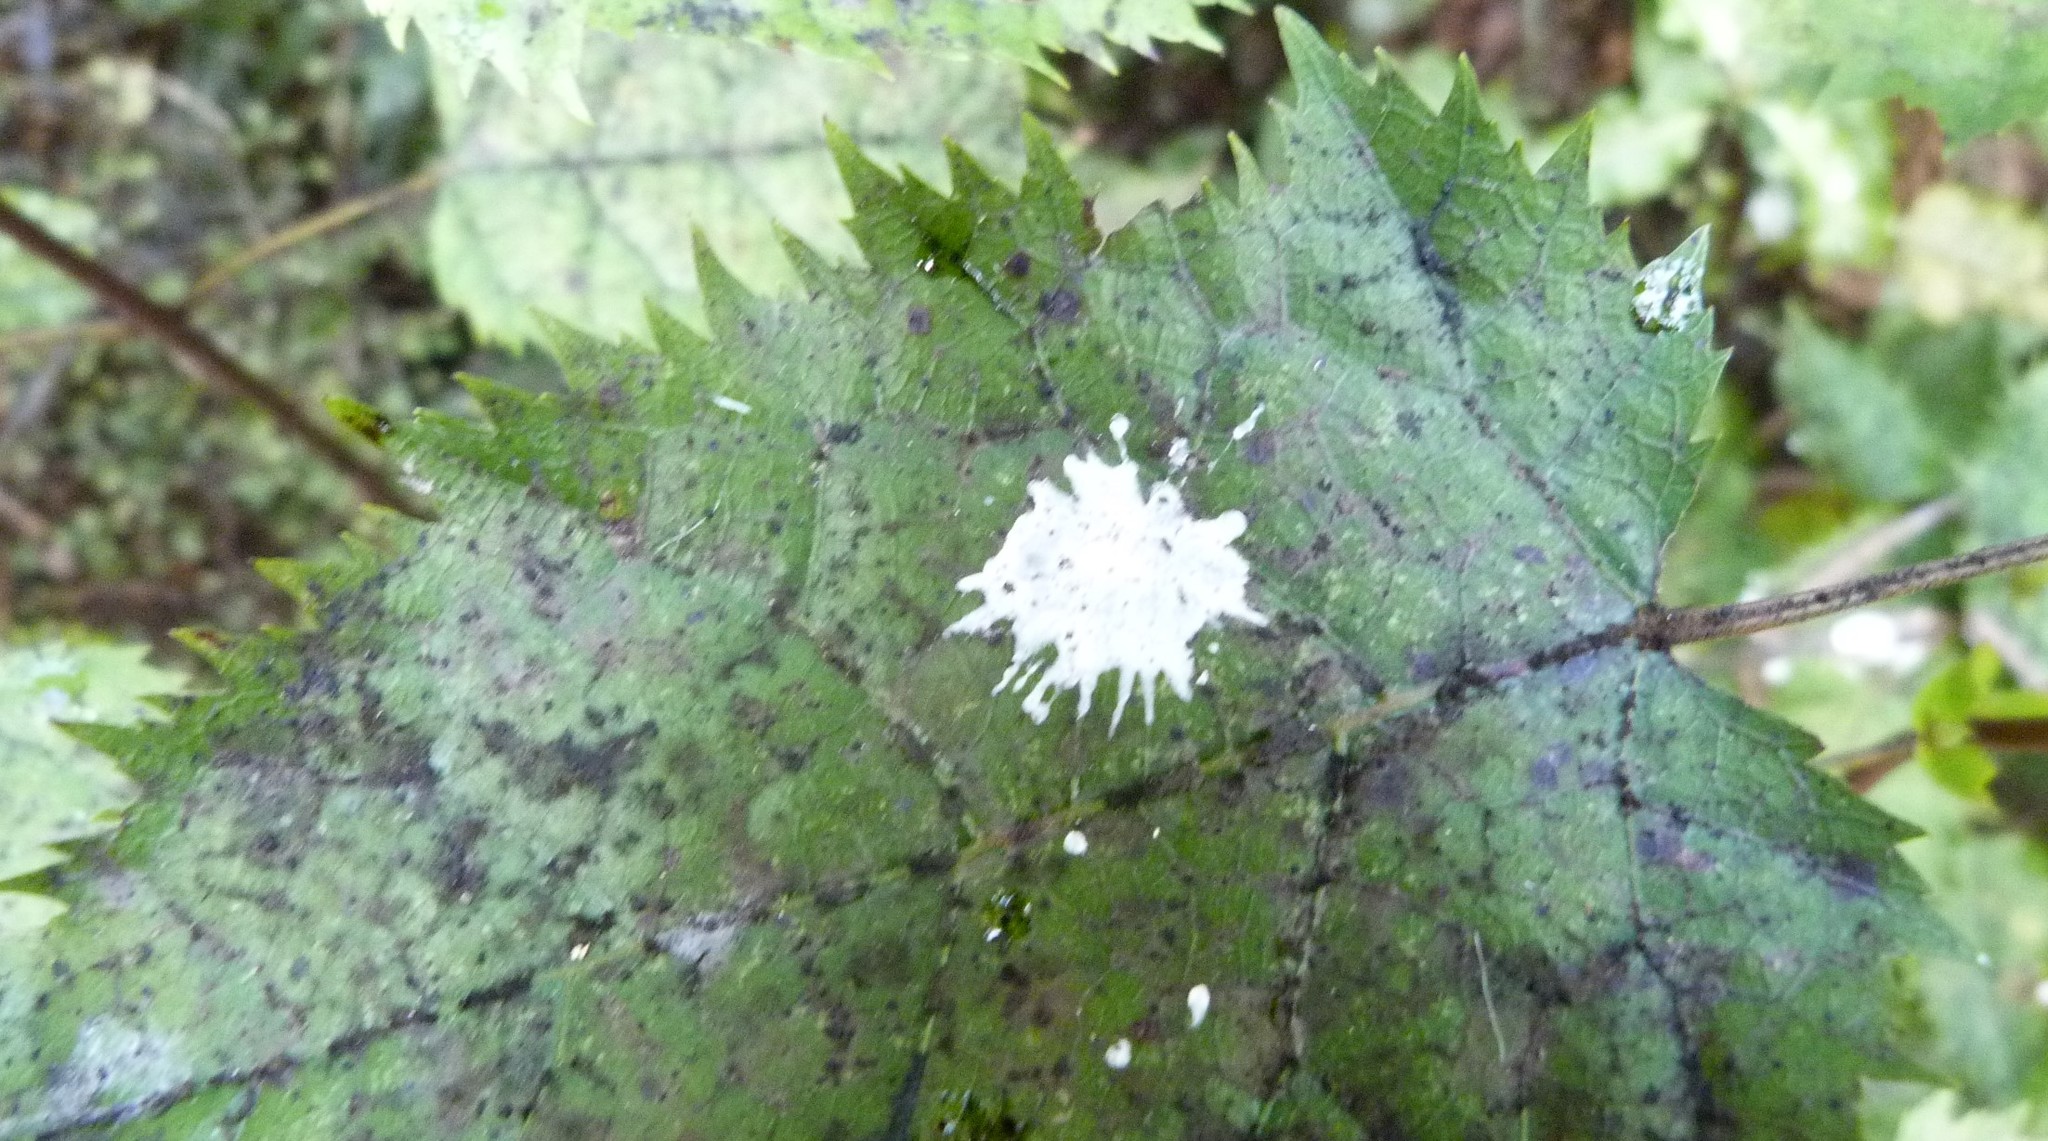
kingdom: Plantae
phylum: Tracheophyta
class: Magnoliopsida
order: Oxalidales
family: Elaeocarpaceae
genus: Aristotelia
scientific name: Aristotelia serrata
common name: New zealand wineberry
